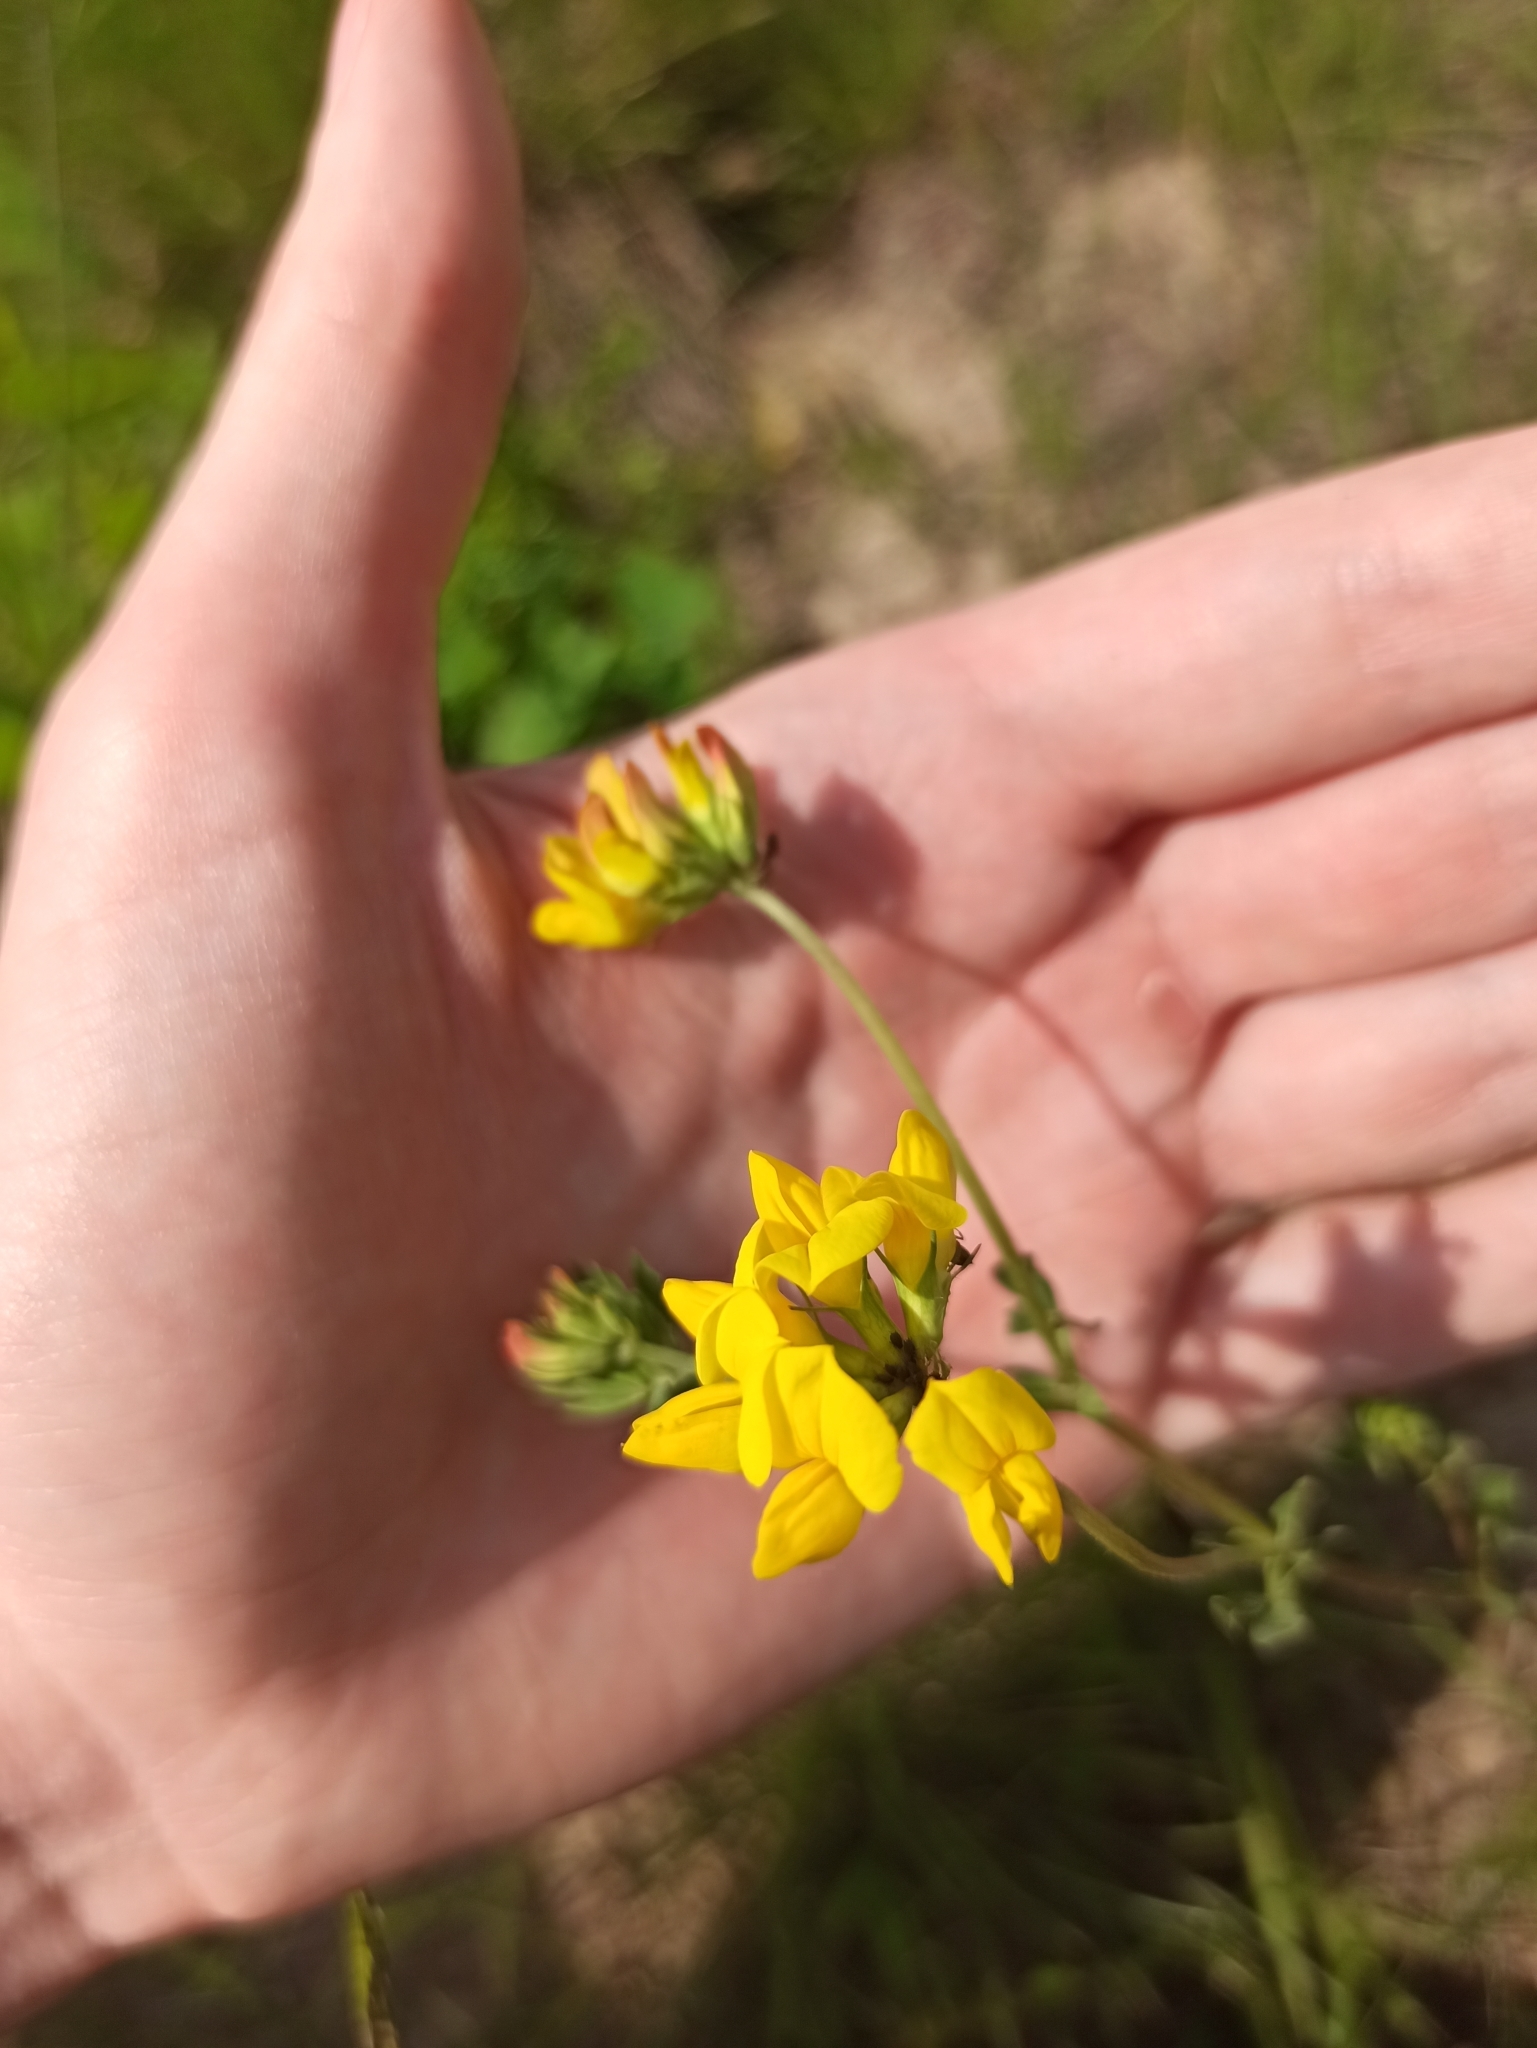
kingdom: Plantae
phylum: Tracheophyta
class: Magnoliopsida
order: Fabales
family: Fabaceae
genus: Lotus
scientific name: Lotus corniculatus
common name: Common bird's-foot-trefoil
